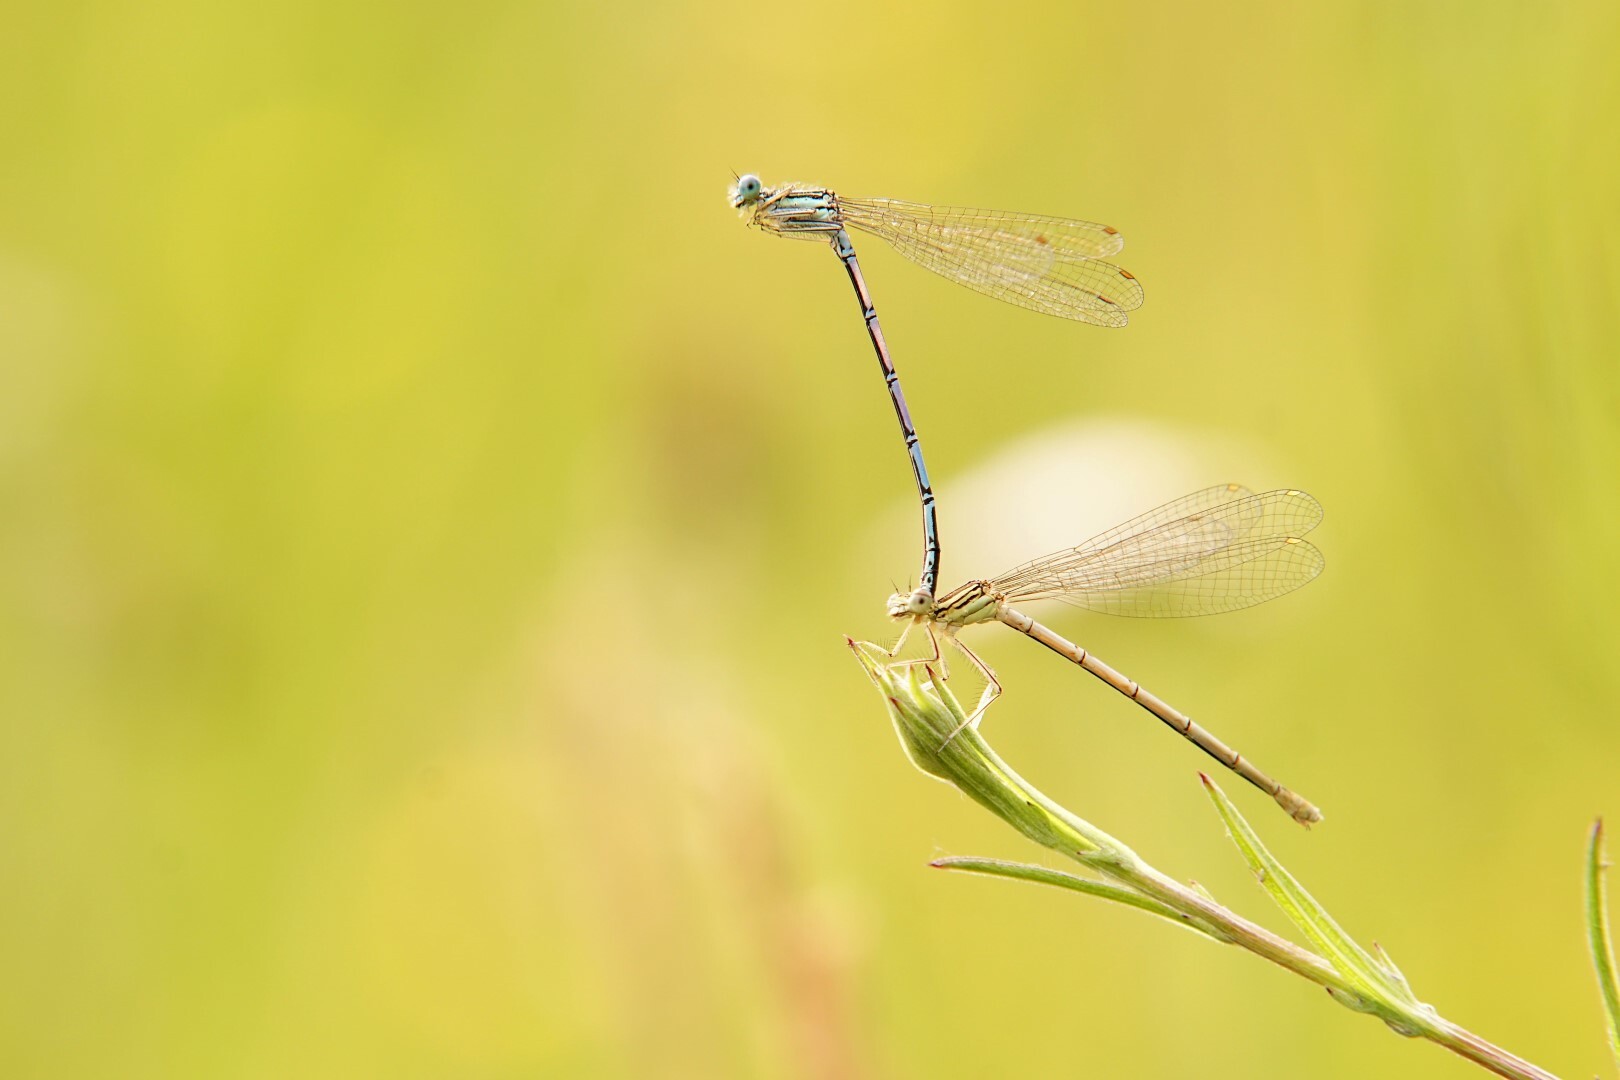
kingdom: Animalia
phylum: Arthropoda
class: Insecta
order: Odonata
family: Platycnemididae
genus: Platycnemis
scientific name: Platycnemis pennipes
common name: White-legged damselfly
